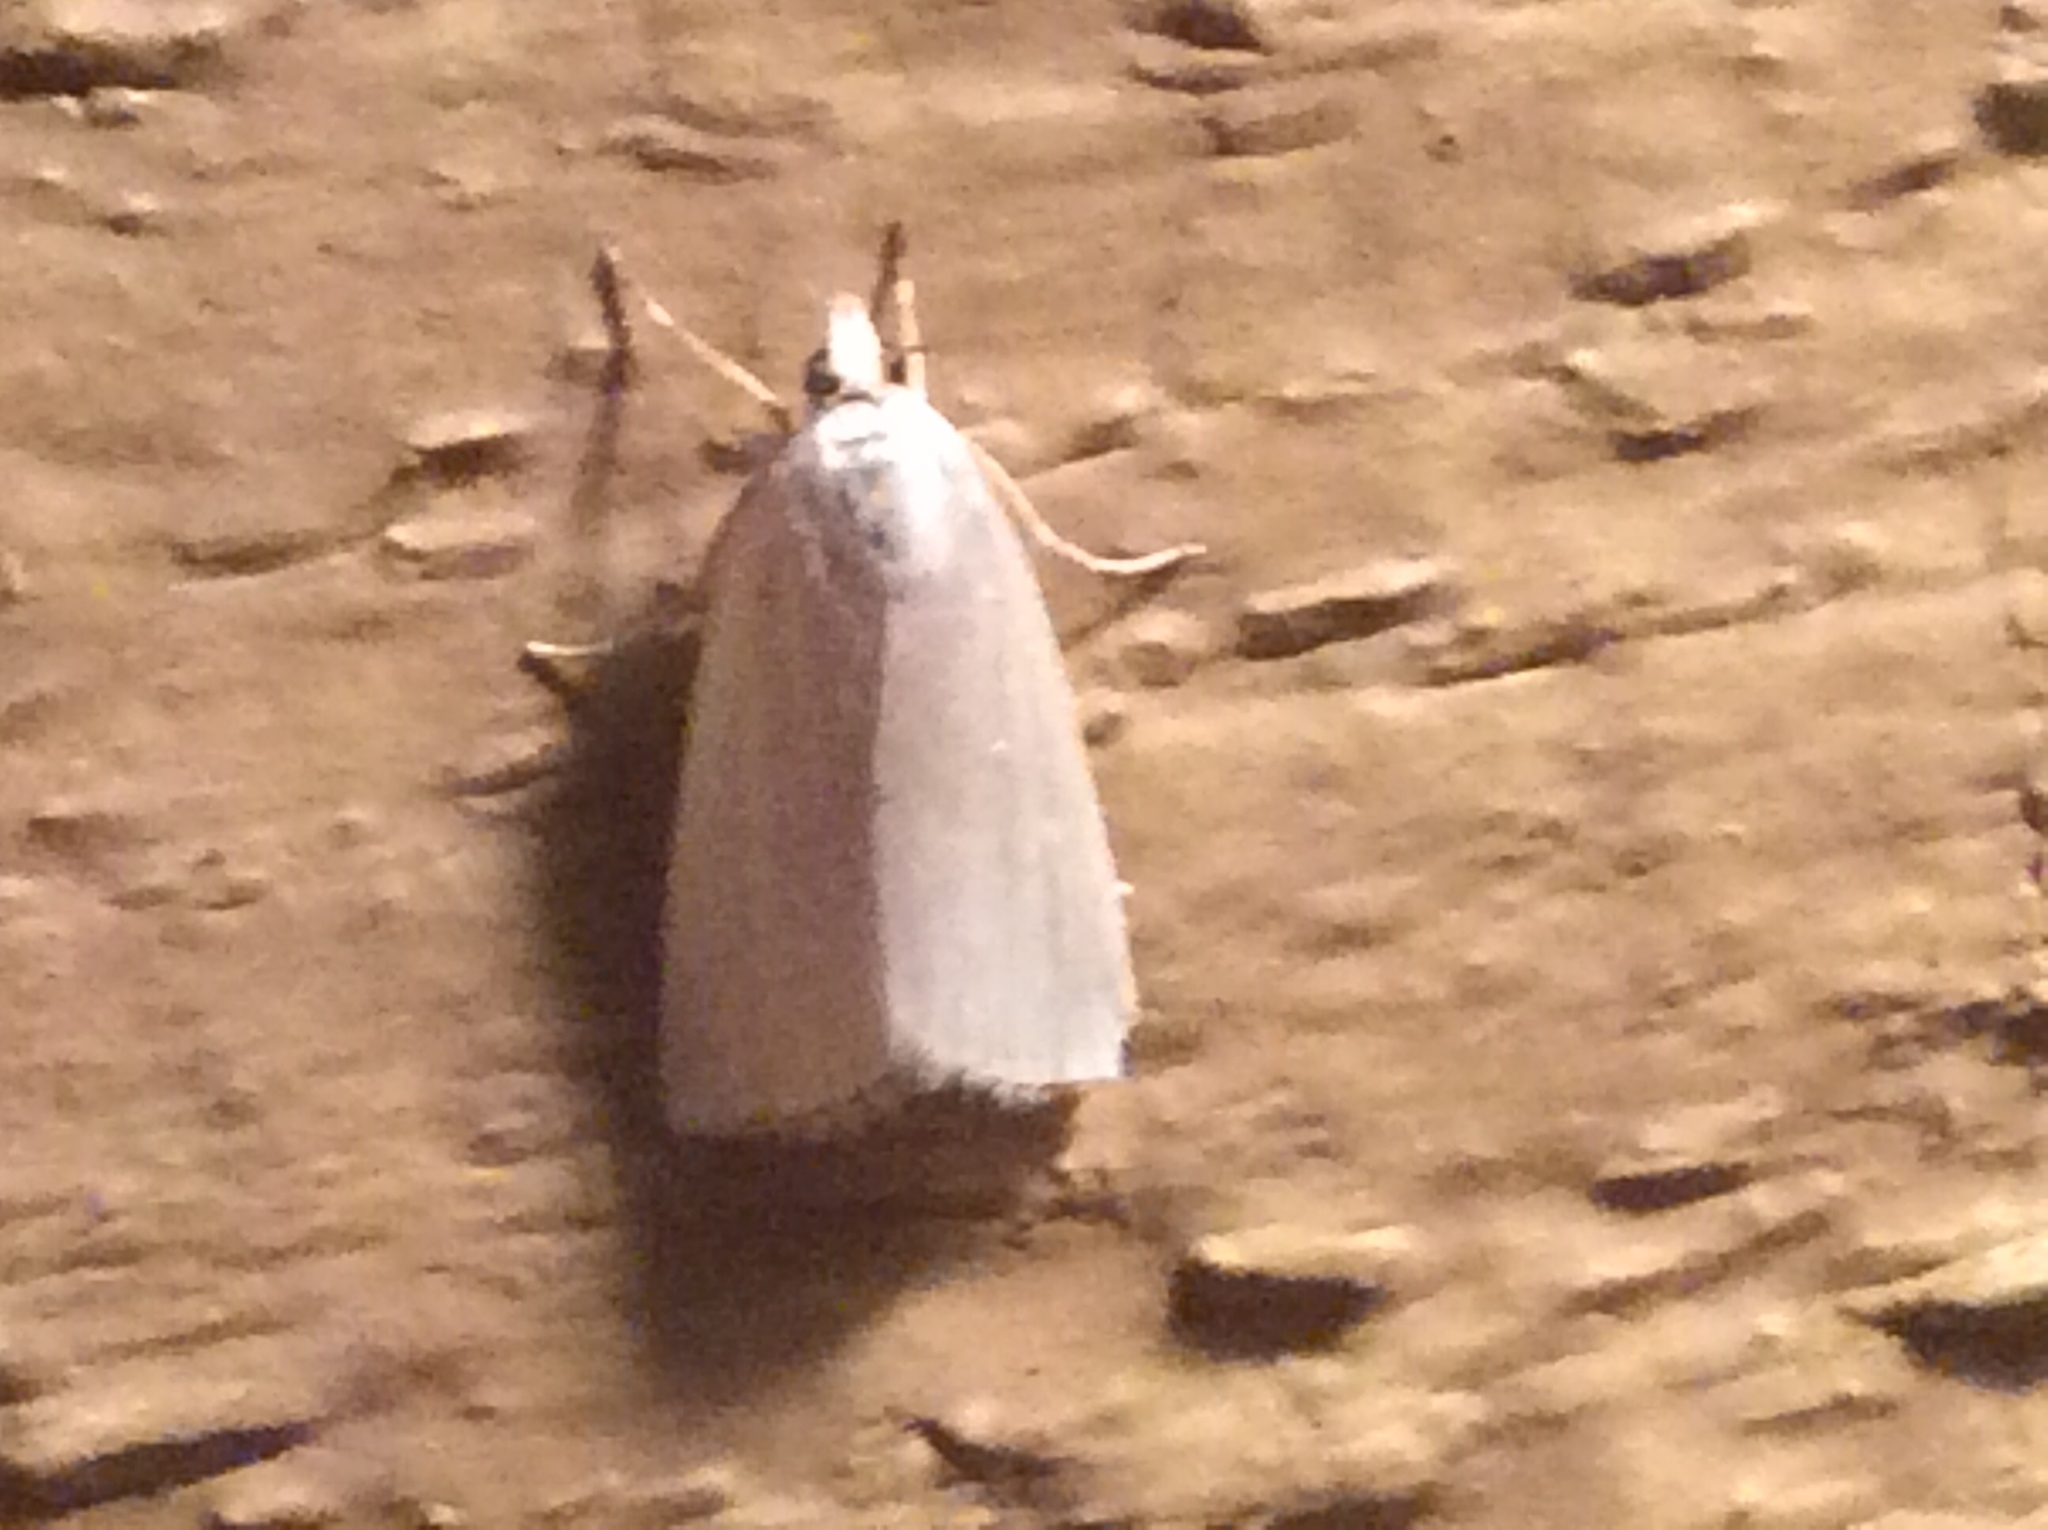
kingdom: Animalia
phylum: Arthropoda
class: Insecta
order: Lepidoptera
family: Crambidae
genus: Argyria
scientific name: Argyria nivalis
